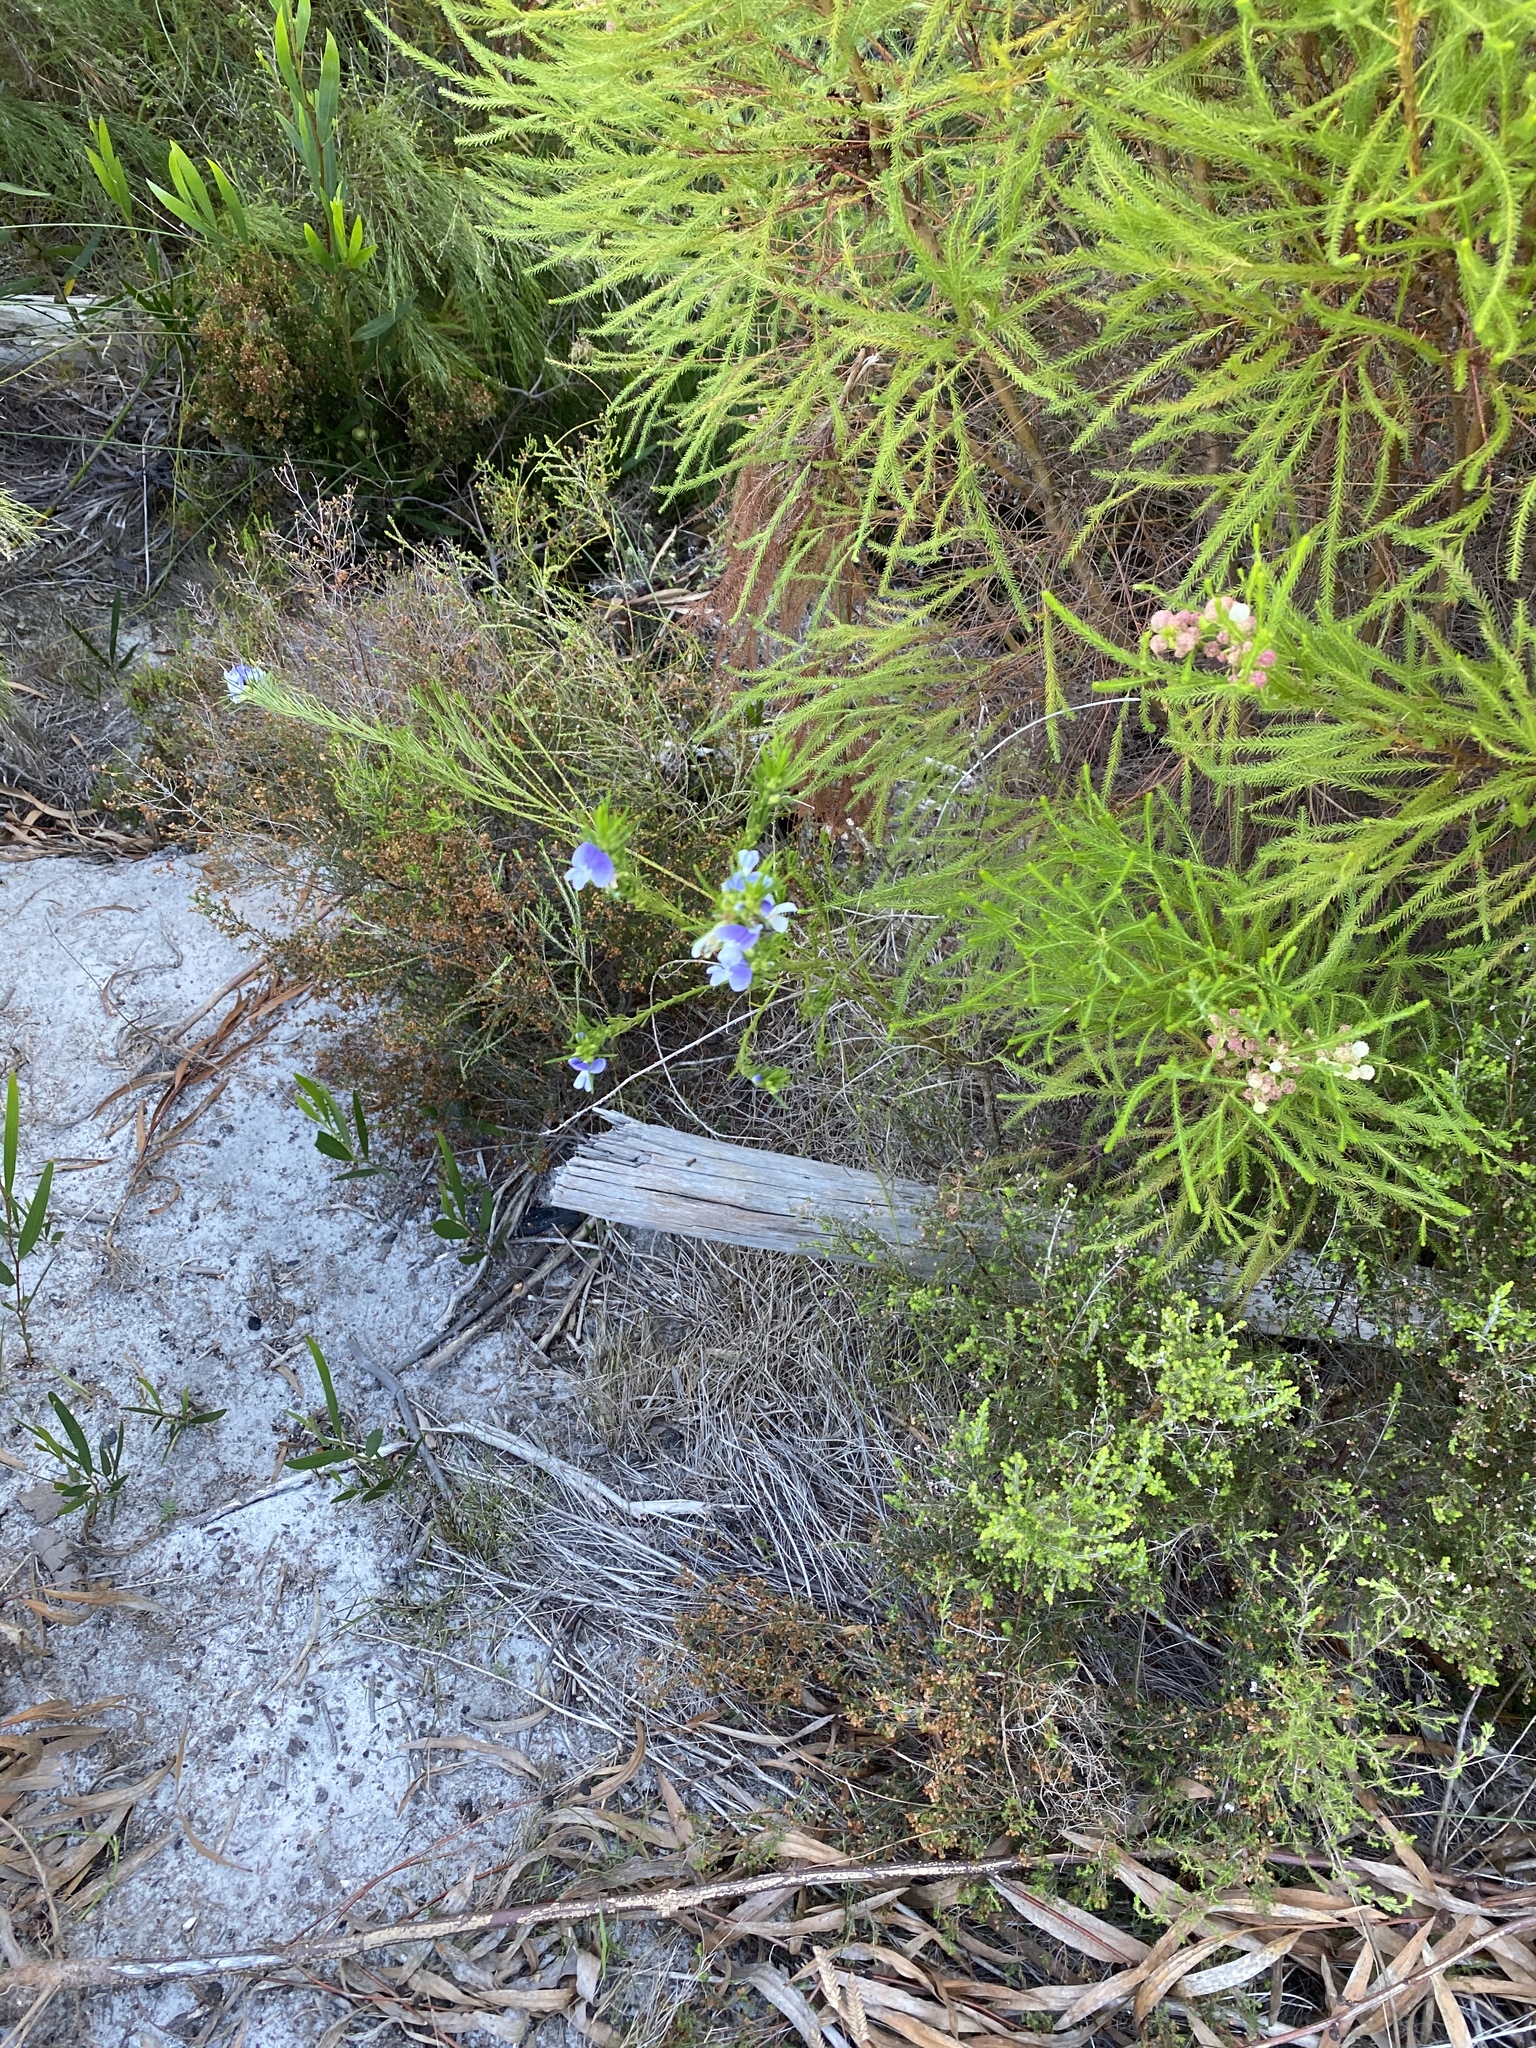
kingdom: Plantae
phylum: Tracheophyta
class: Magnoliopsida
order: Fabales
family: Fabaceae
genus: Psoralea
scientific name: Psoralea ivumba
